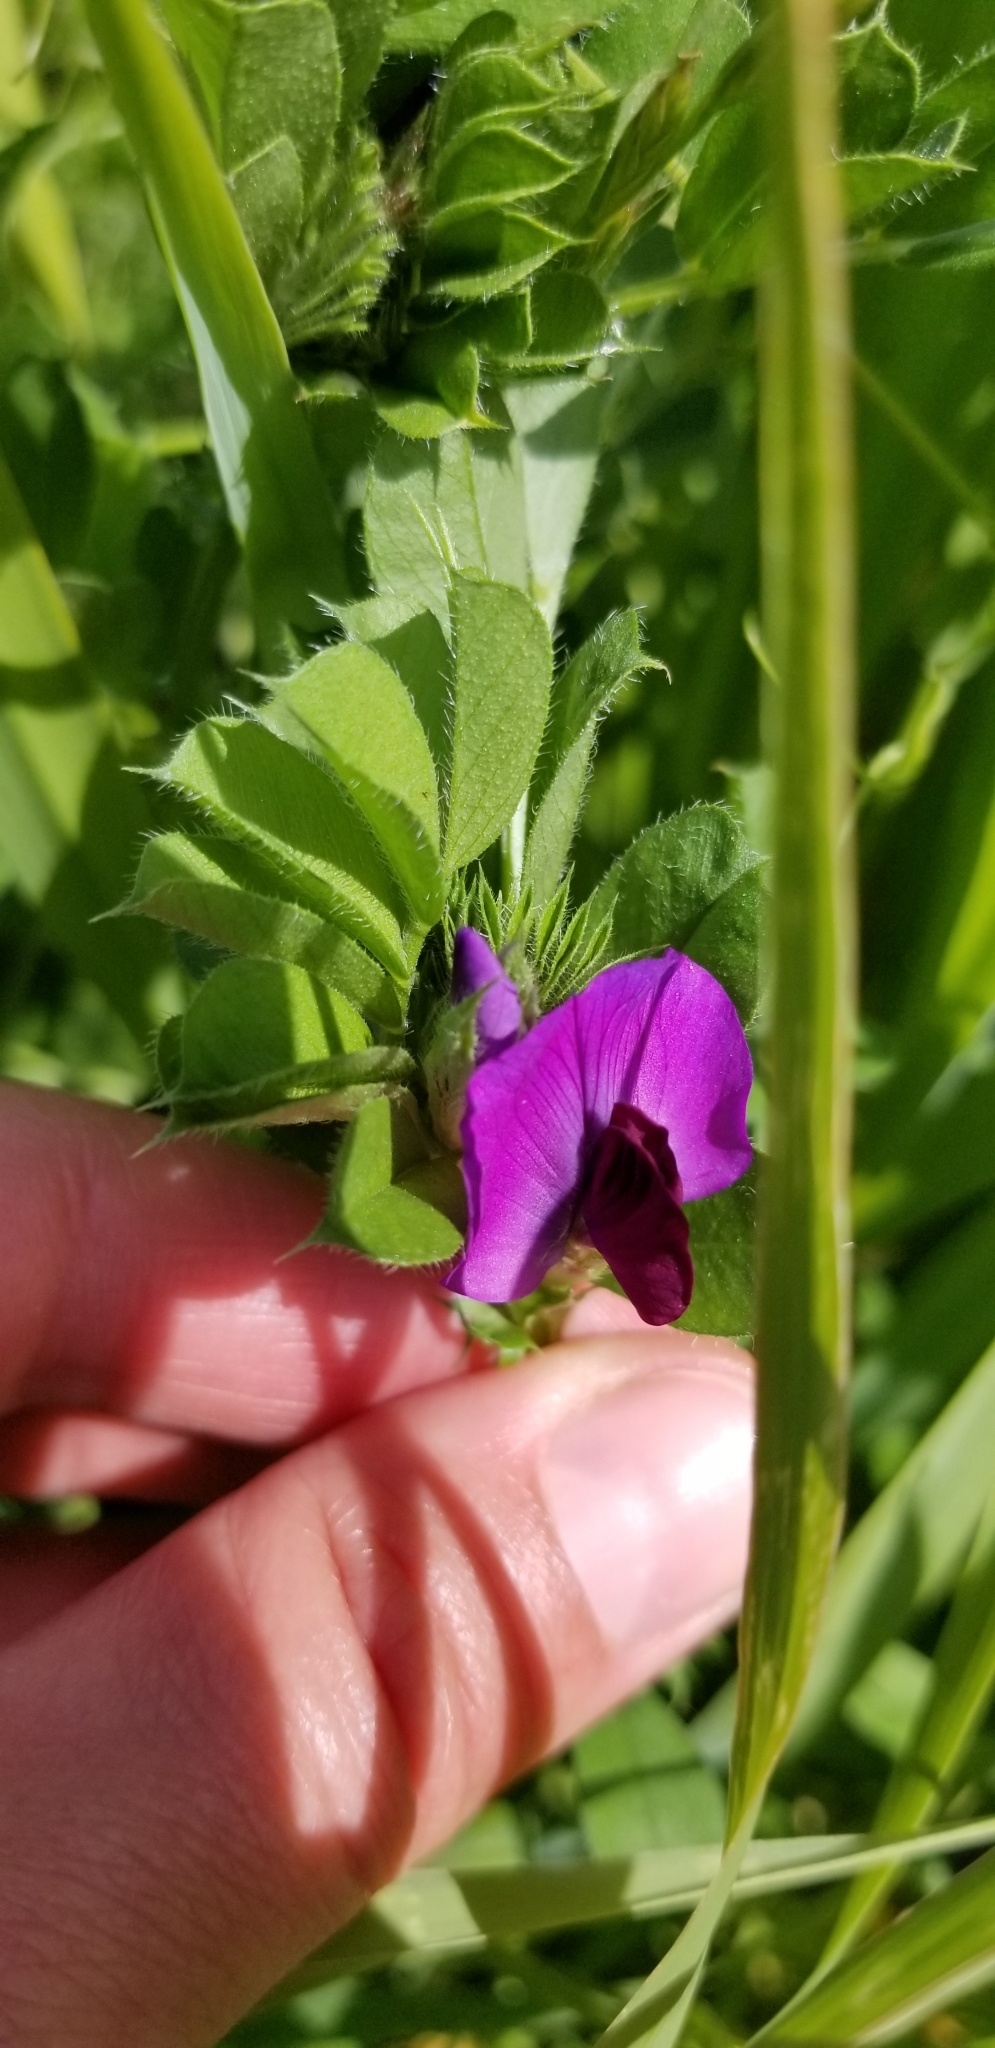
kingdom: Plantae
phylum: Tracheophyta
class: Magnoliopsida
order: Fabales
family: Fabaceae
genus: Vicia
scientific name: Vicia sativa
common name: Garden vetch
